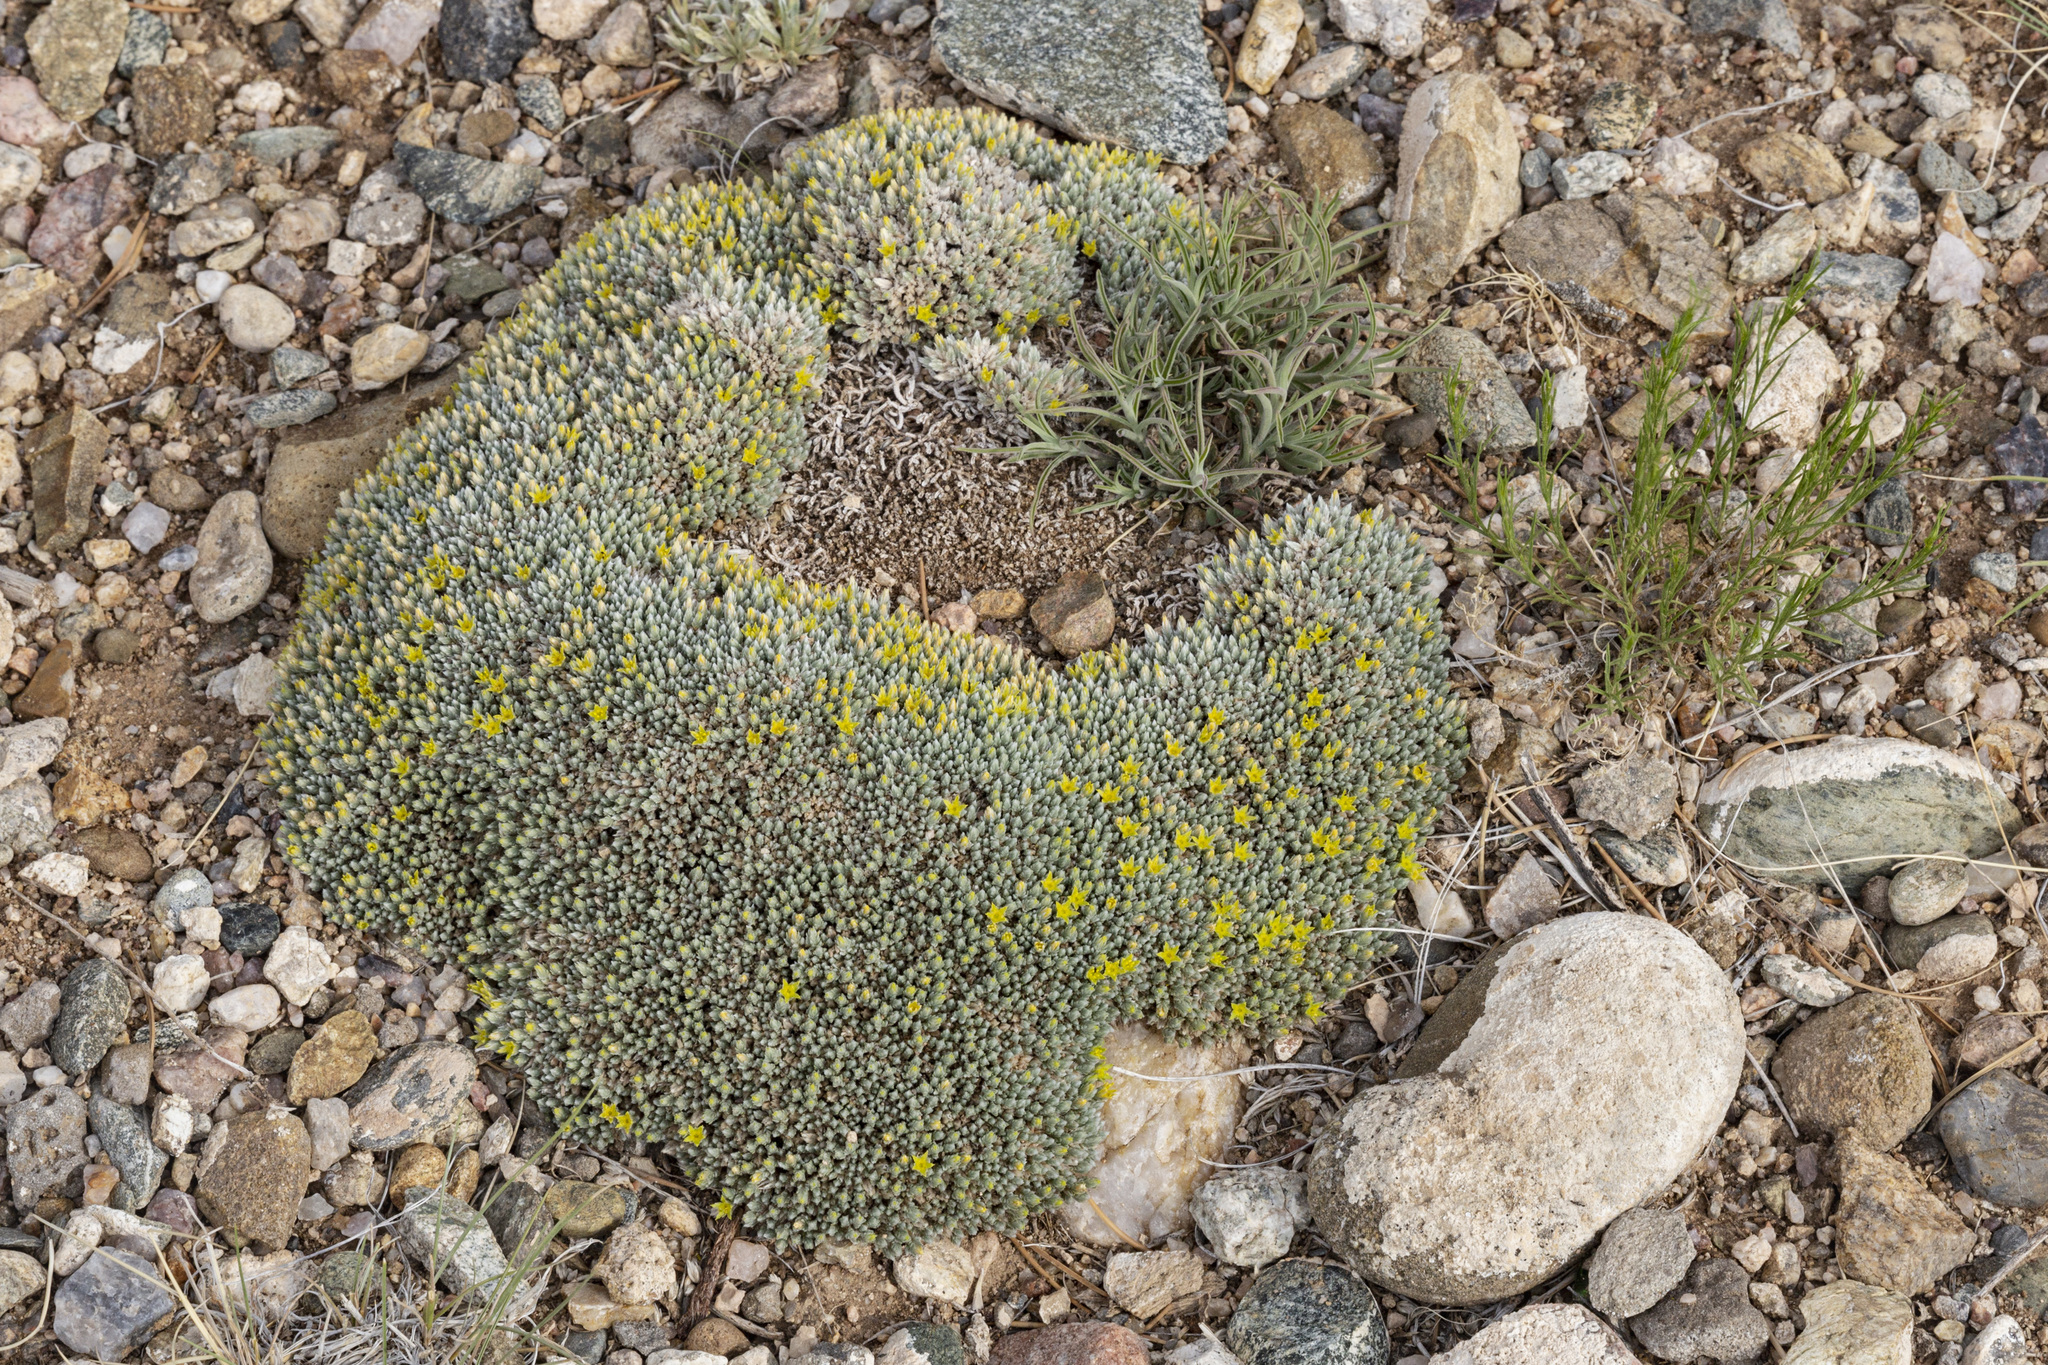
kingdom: Plantae
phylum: Tracheophyta
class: Magnoliopsida
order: Caryophyllales
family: Caryophyllaceae
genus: Paronychia
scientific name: Paronychia sessiliflora
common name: Creeping nailwort
